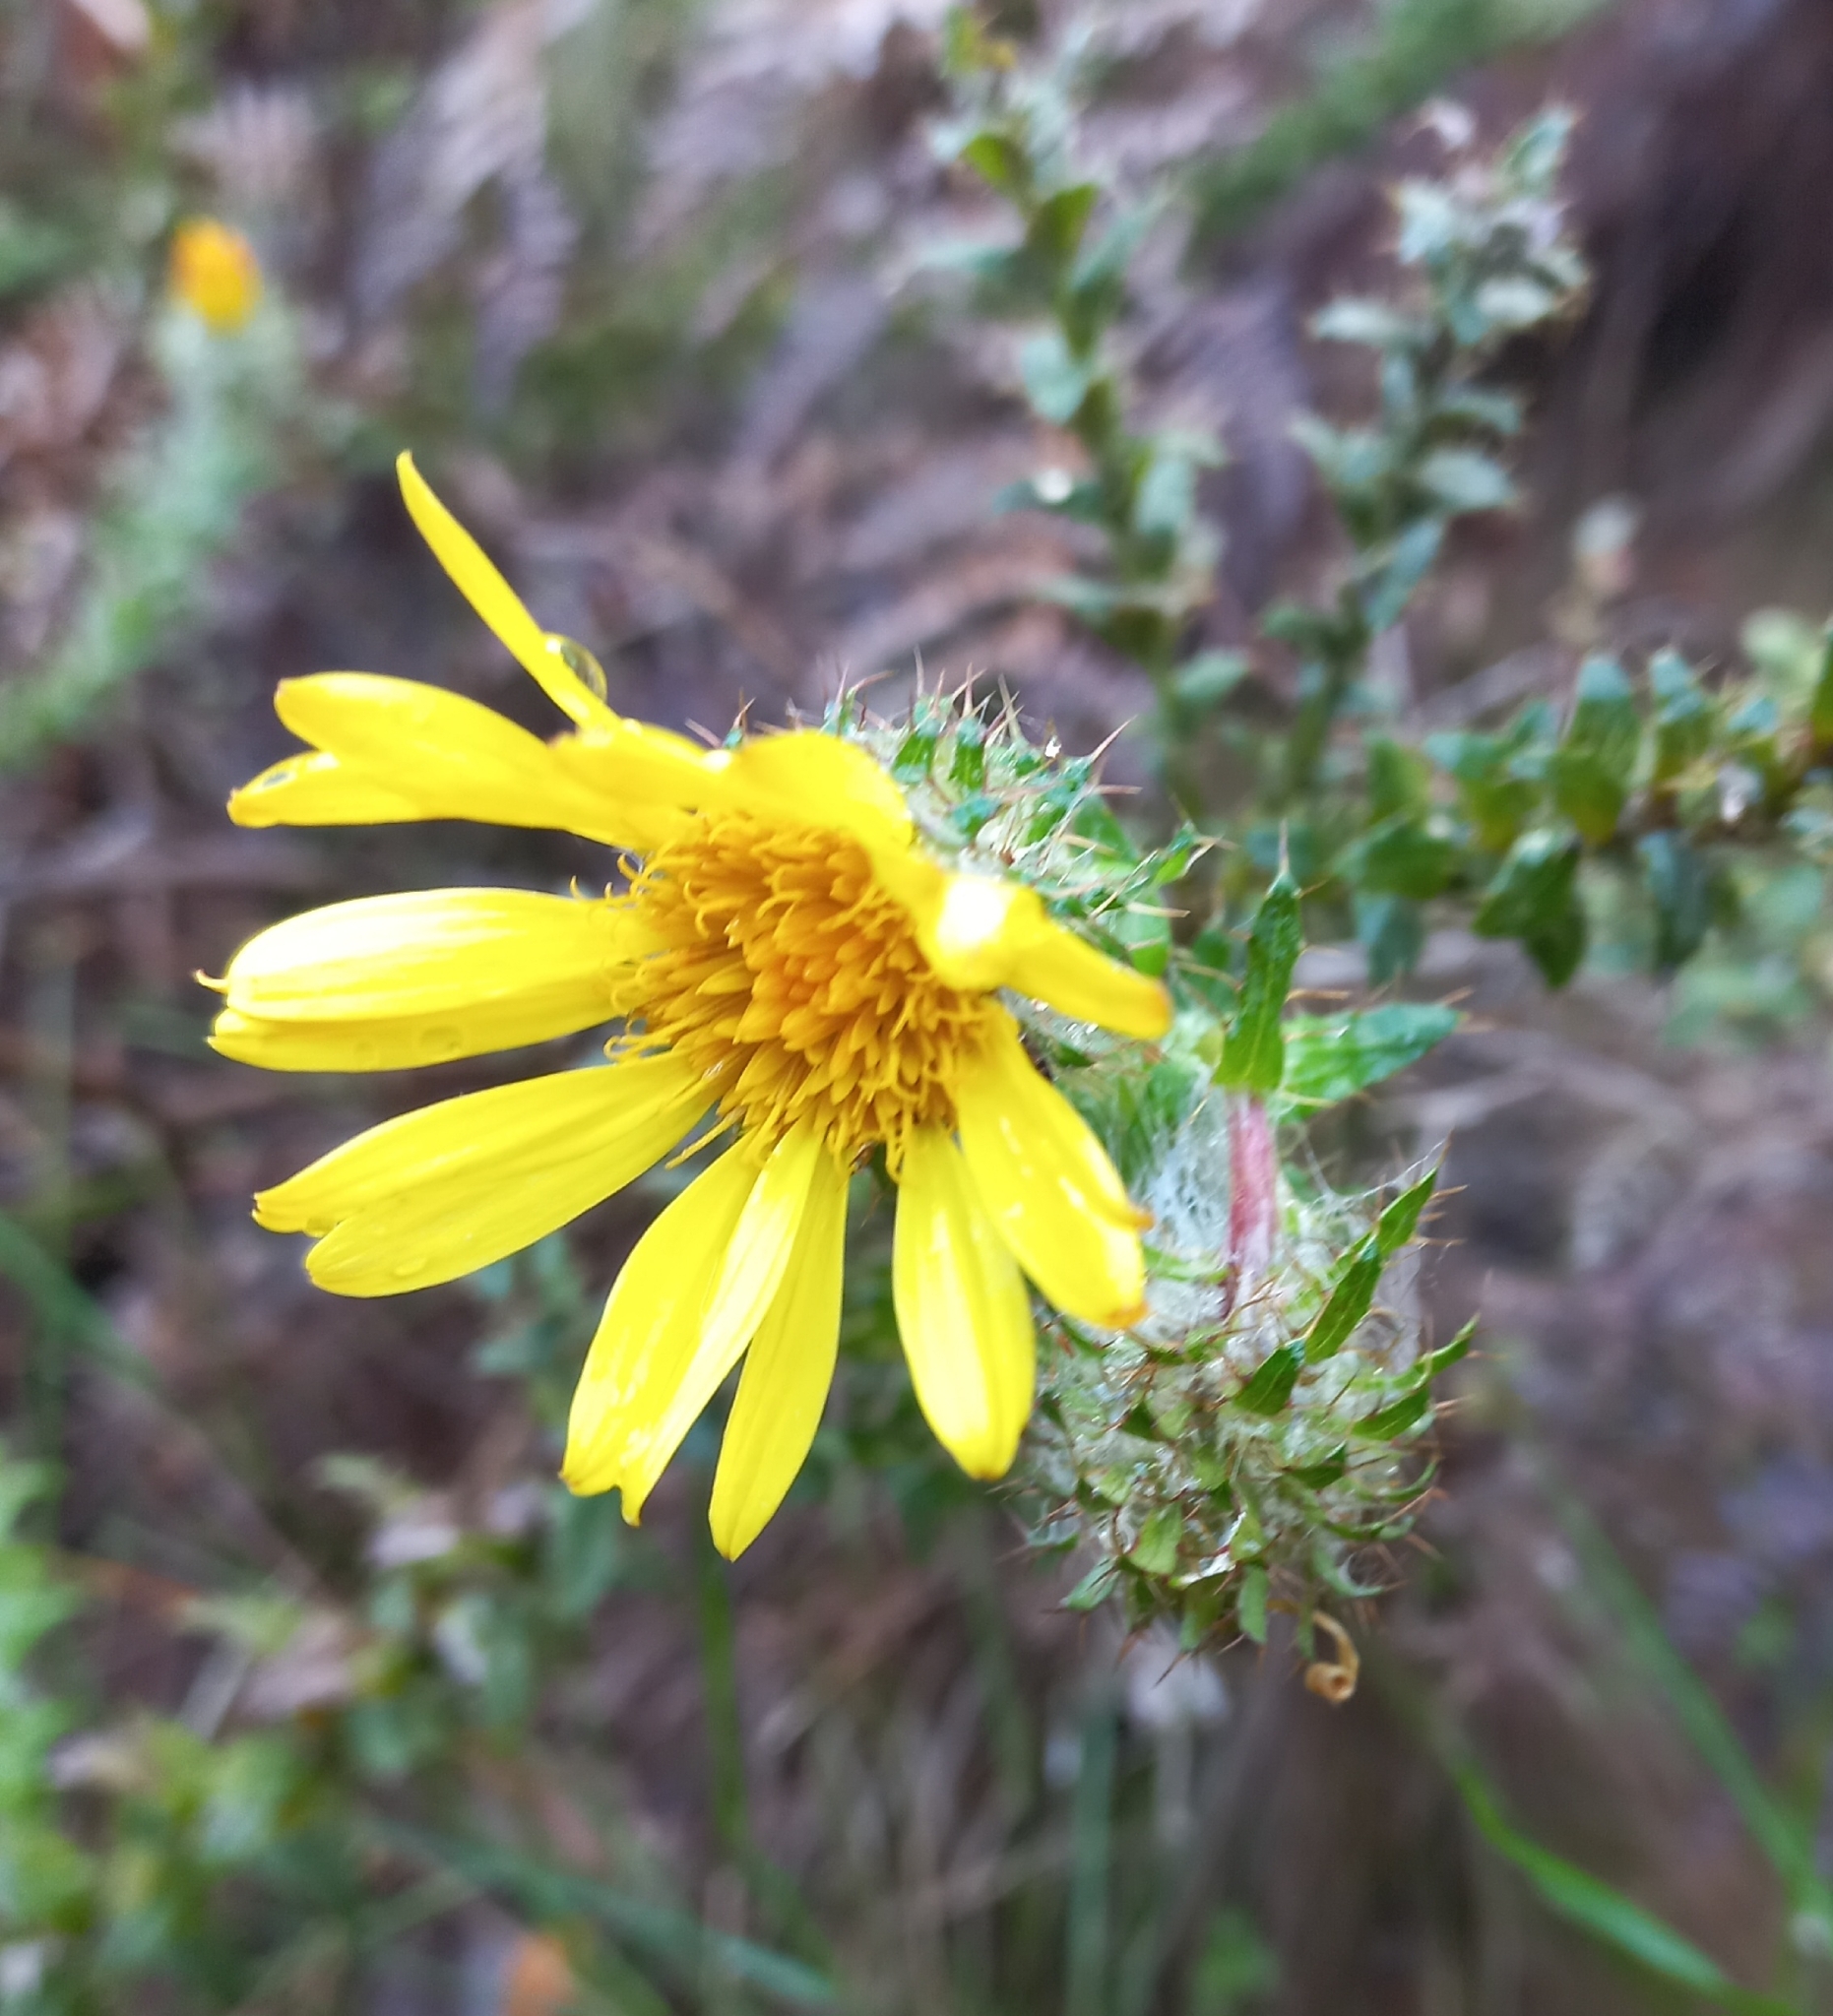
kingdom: Plantae
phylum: Tracheophyta
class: Magnoliopsida
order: Asterales
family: Asteraceae
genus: Cullumia
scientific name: Cullumia setosa
